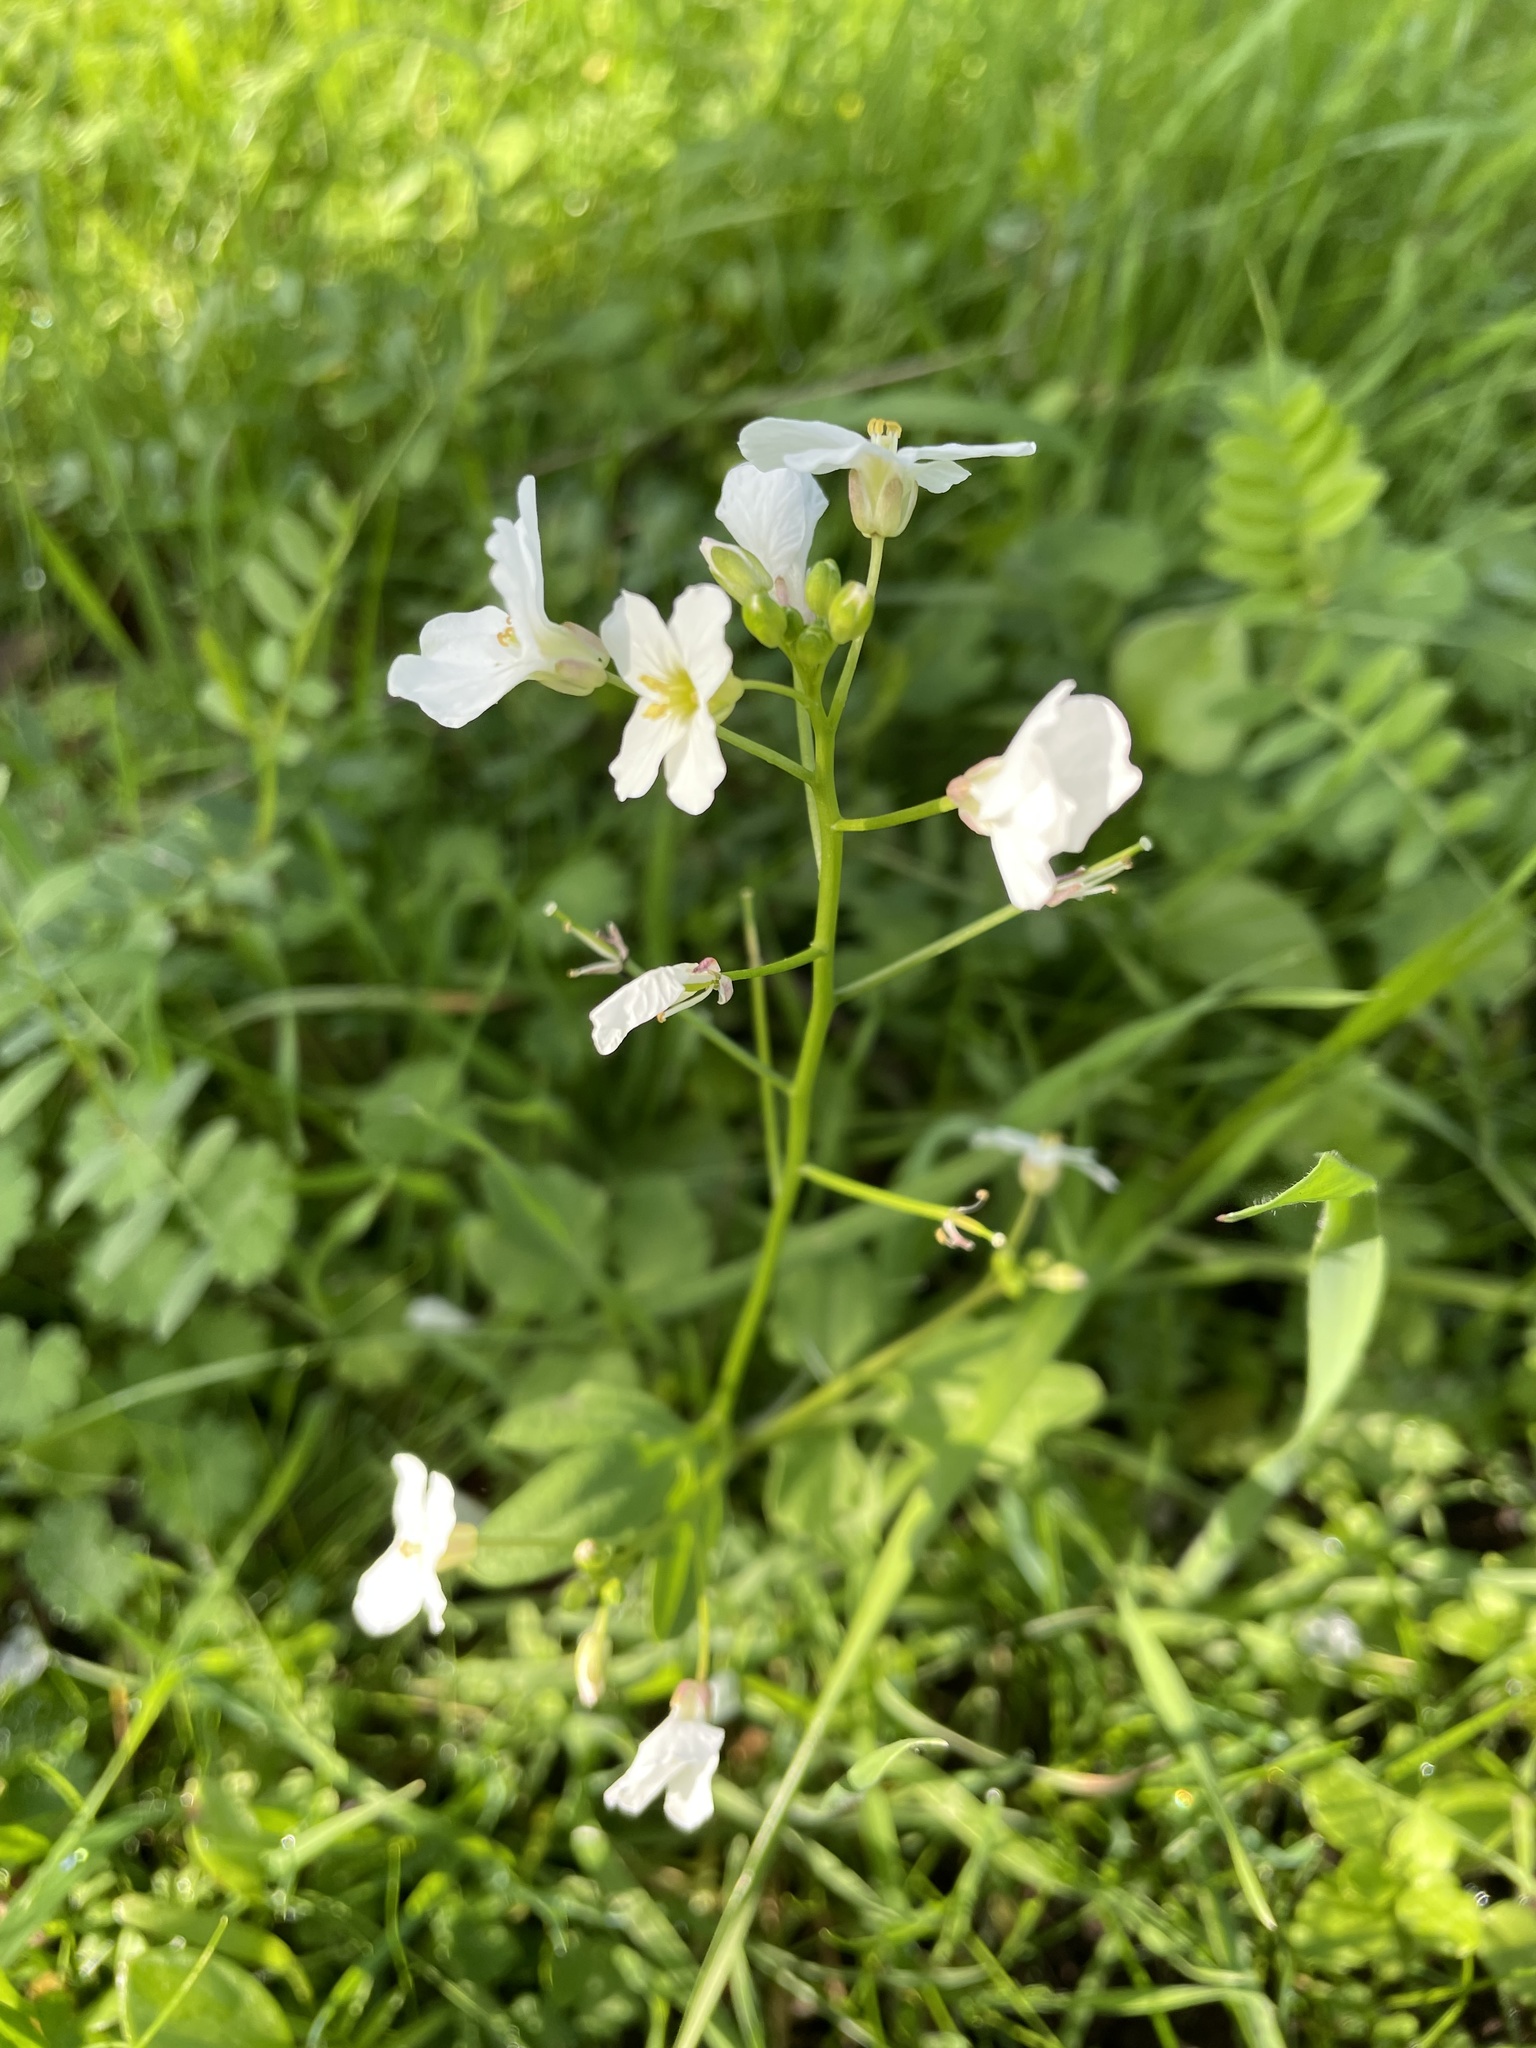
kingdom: Plantae
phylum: Tracheophyta
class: Magnoliopsida
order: Brassicales
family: Brassicaceae
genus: Cardamine
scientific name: Cardamine californica
